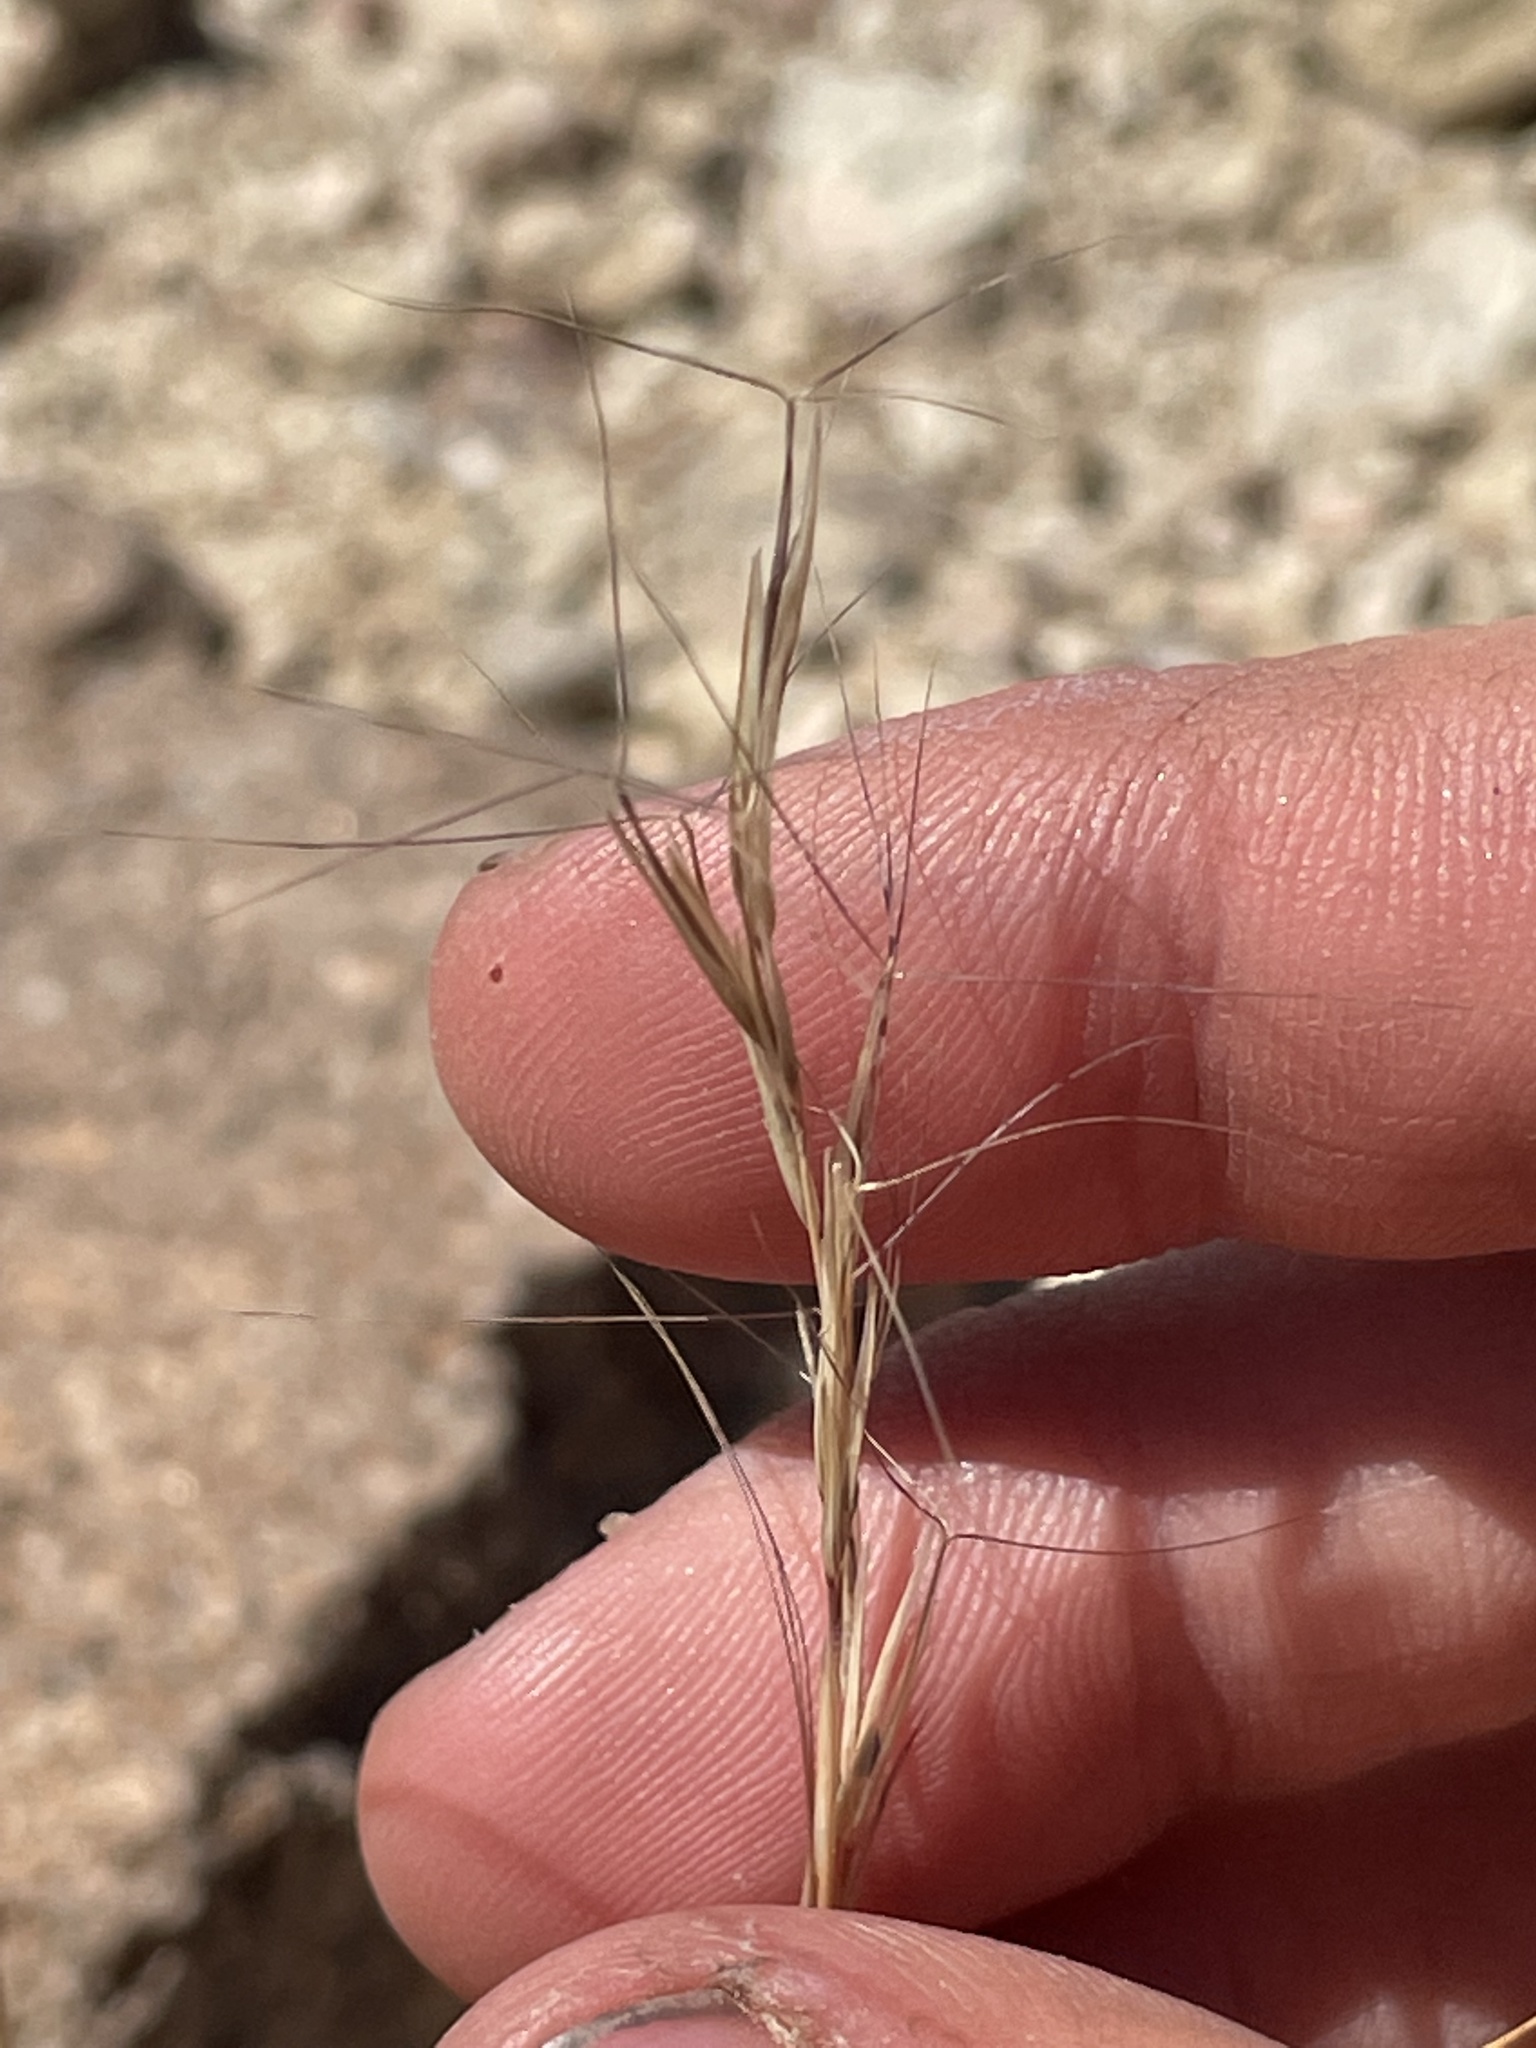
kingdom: Plantae
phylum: Tracheophyta
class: Liliopsida
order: Poales
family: Poaceae
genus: Aristida
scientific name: Aristida purpurea
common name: Purple threeawn
